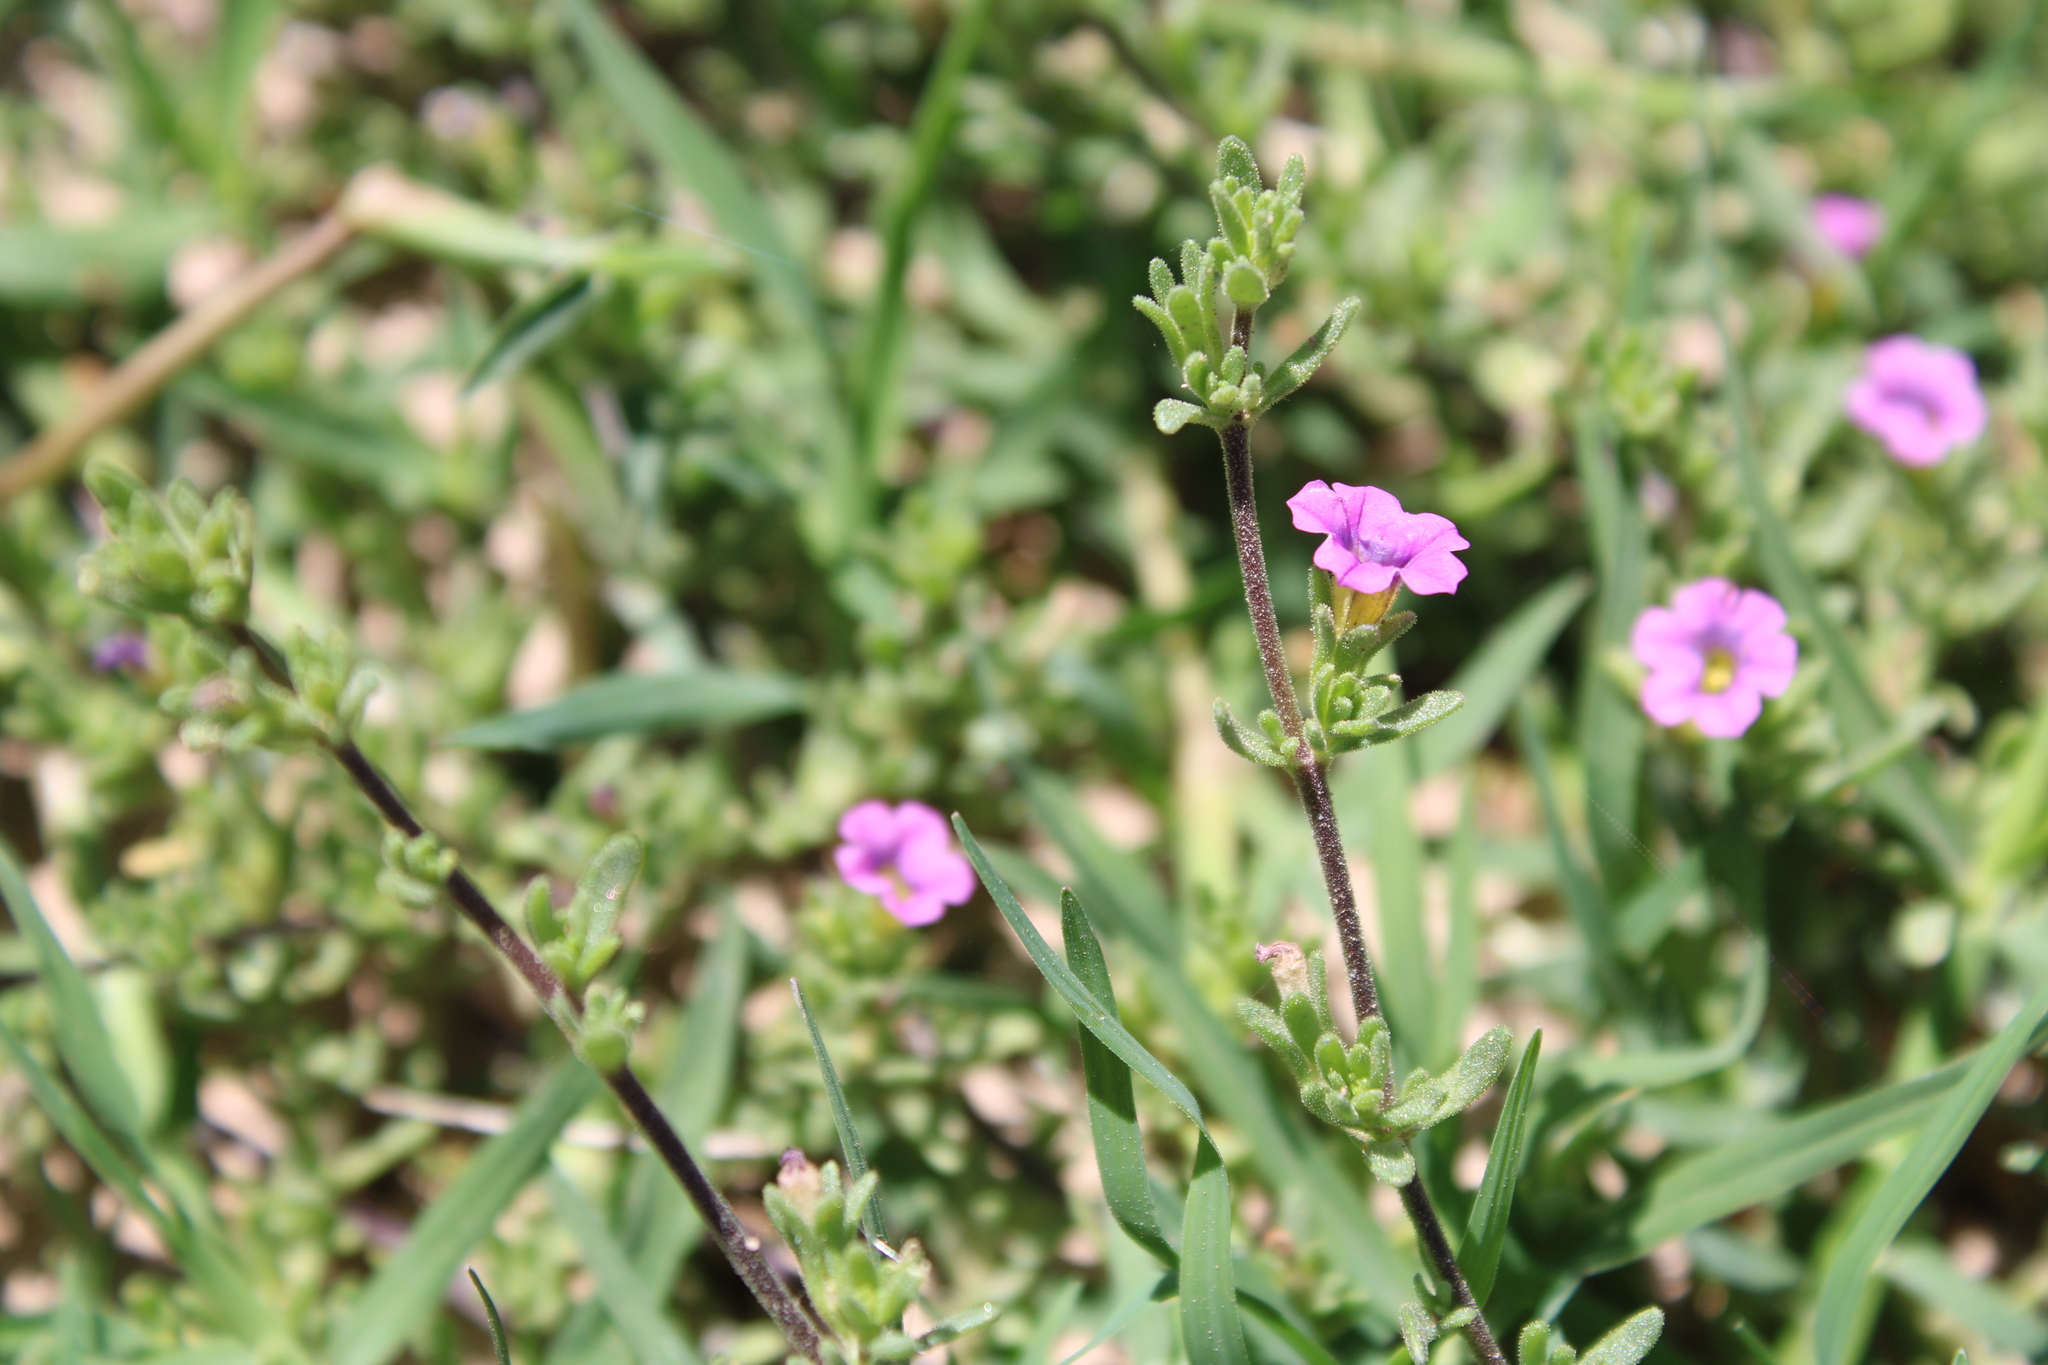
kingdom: Plantae
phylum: Tracheophyta
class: Magnoliopsida
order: Solanales
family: Solanaceae
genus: Calibrachoa
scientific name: Calibrachoa parviflora
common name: Seaside petunia
